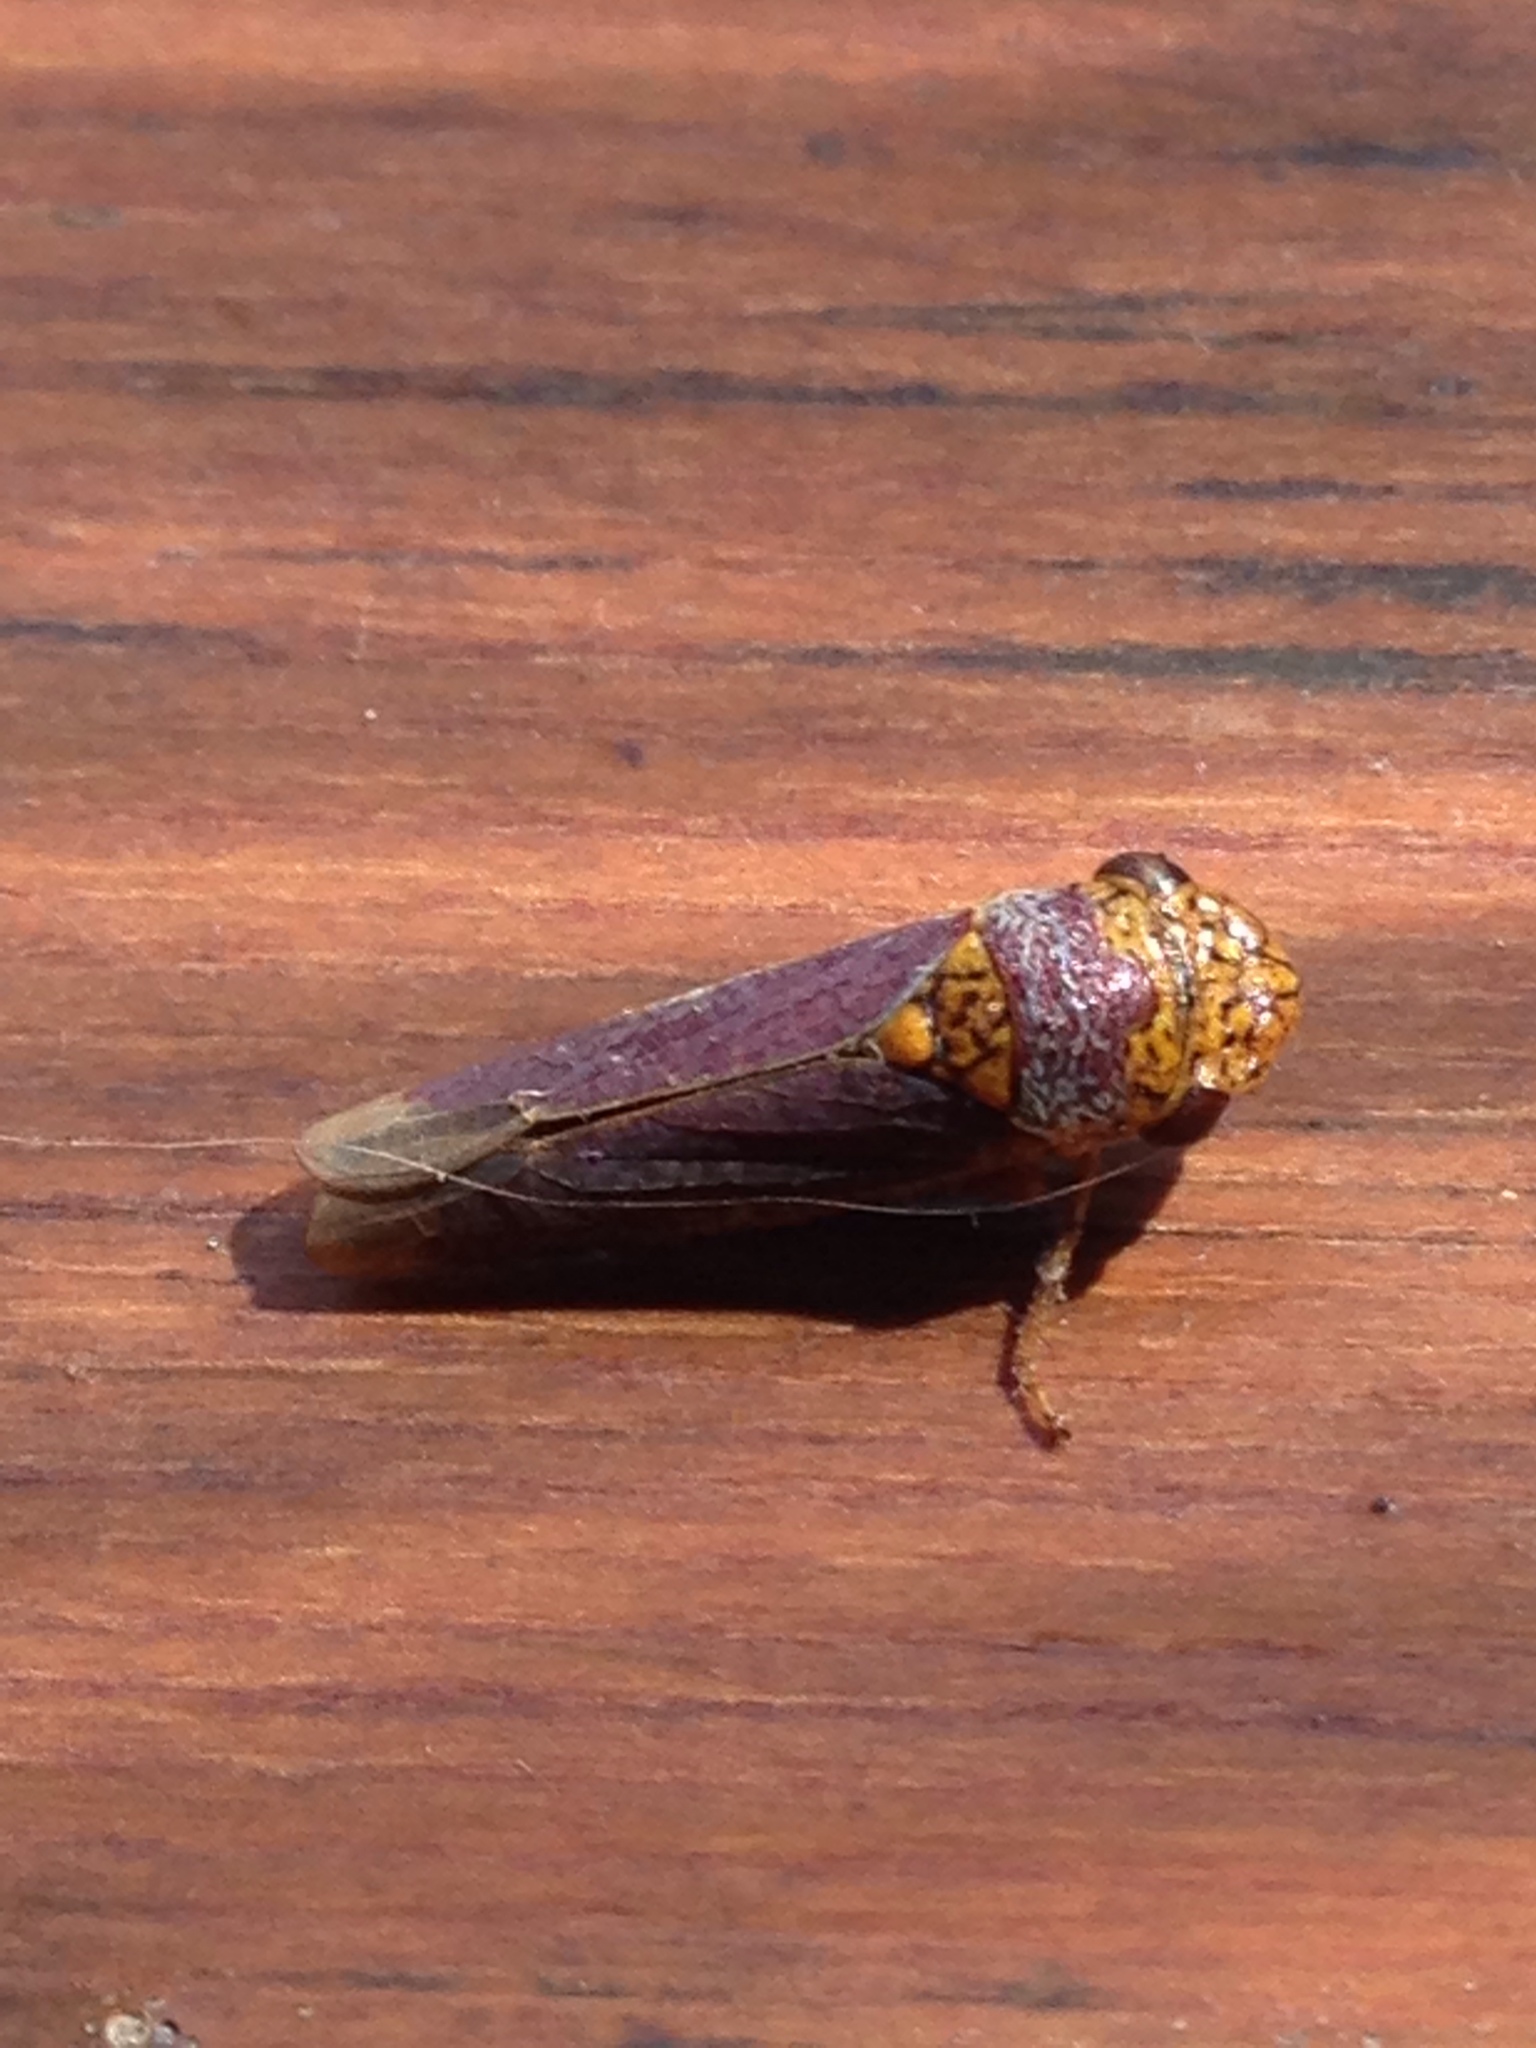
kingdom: Animalia
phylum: Arthropoda
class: Insecta
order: Hemiptera
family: Cicadellidae
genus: Oncometopia
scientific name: Oncometopia orbona
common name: Broad-headed sharpshooter
